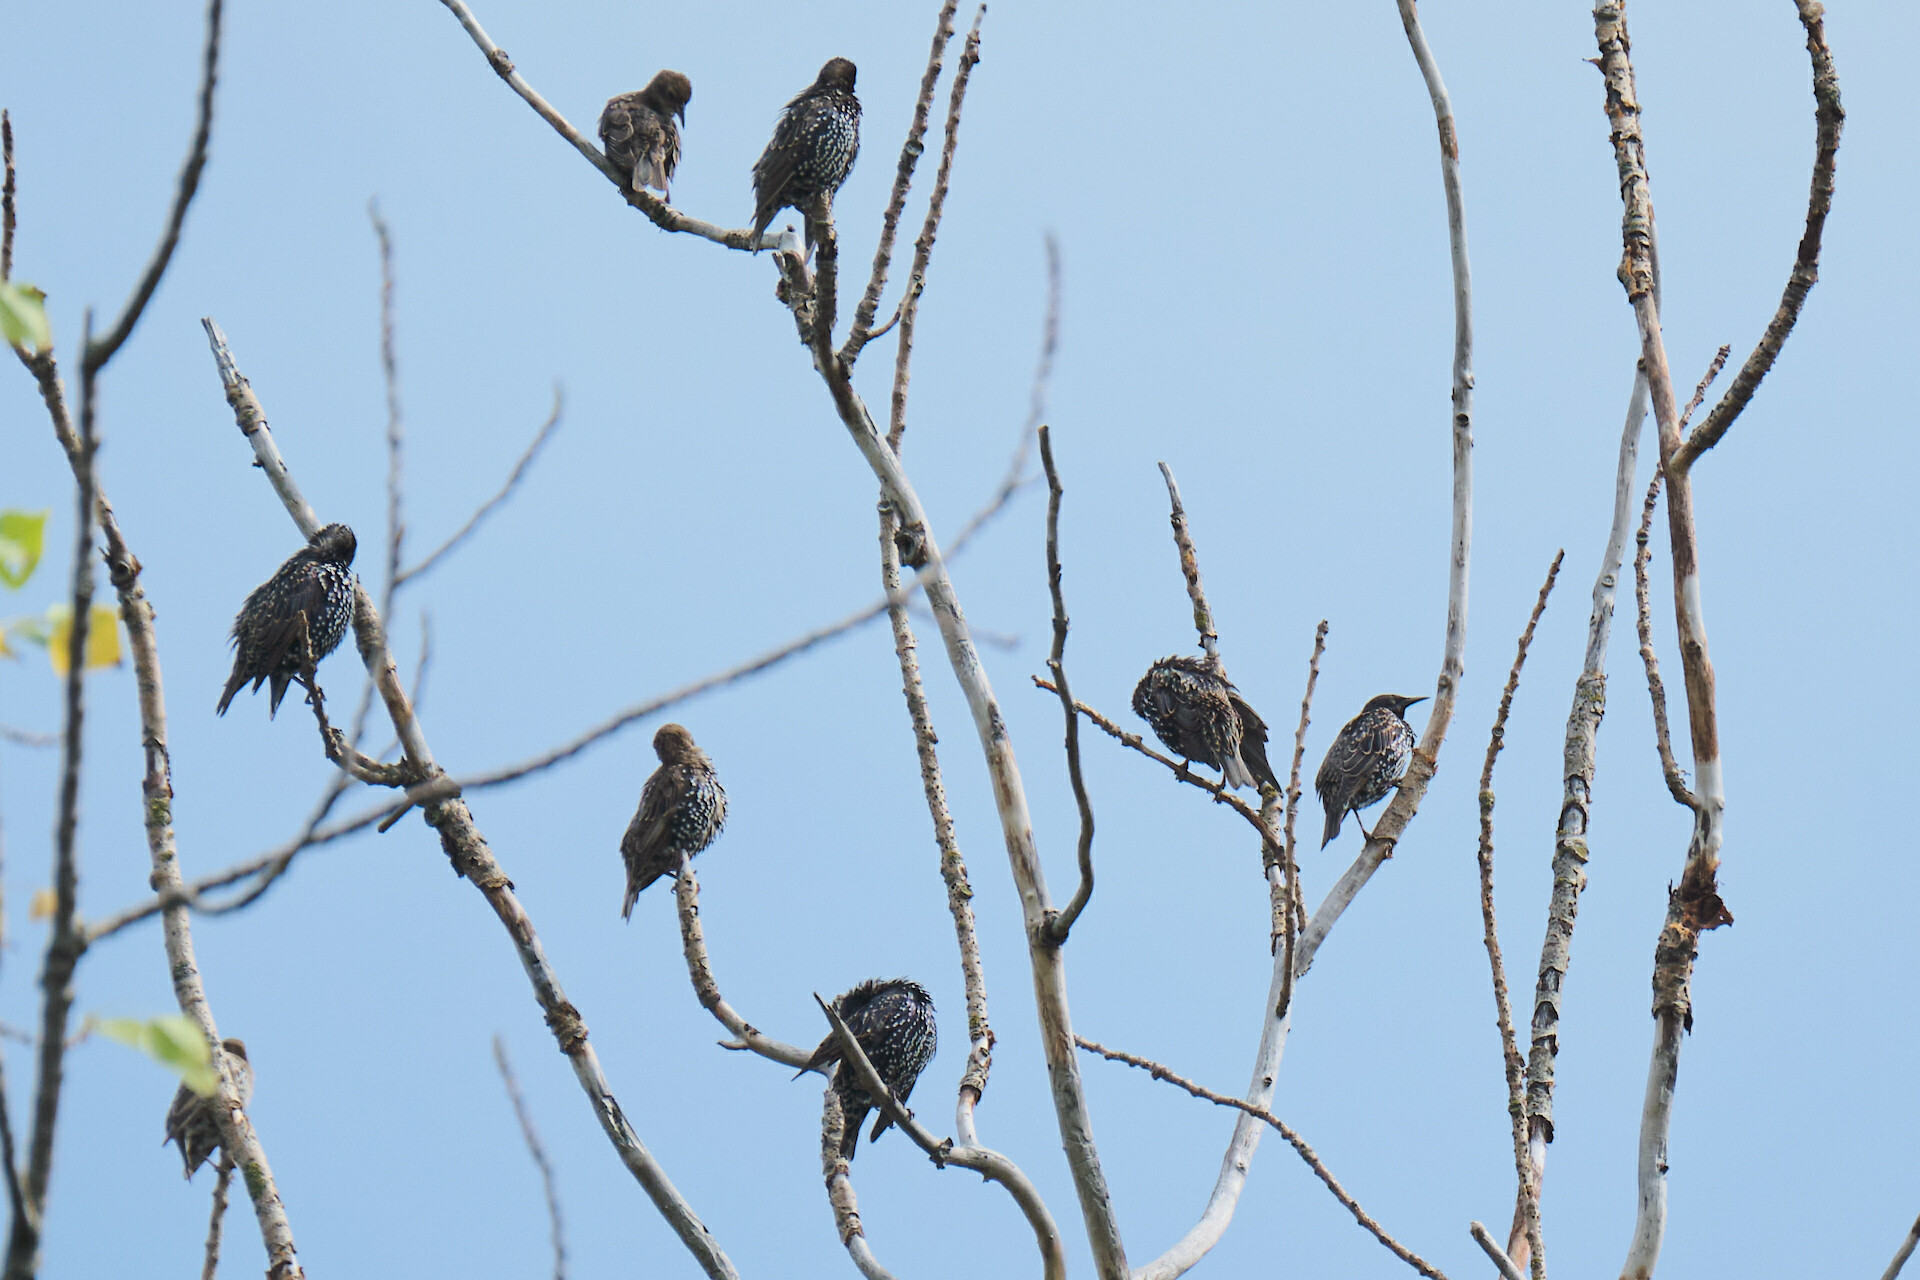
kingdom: Animalia
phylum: Chordata
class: Aves
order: Passeriformes
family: Sturnidae
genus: Sturnus
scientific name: Sturnus vulgaris
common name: Common starling
